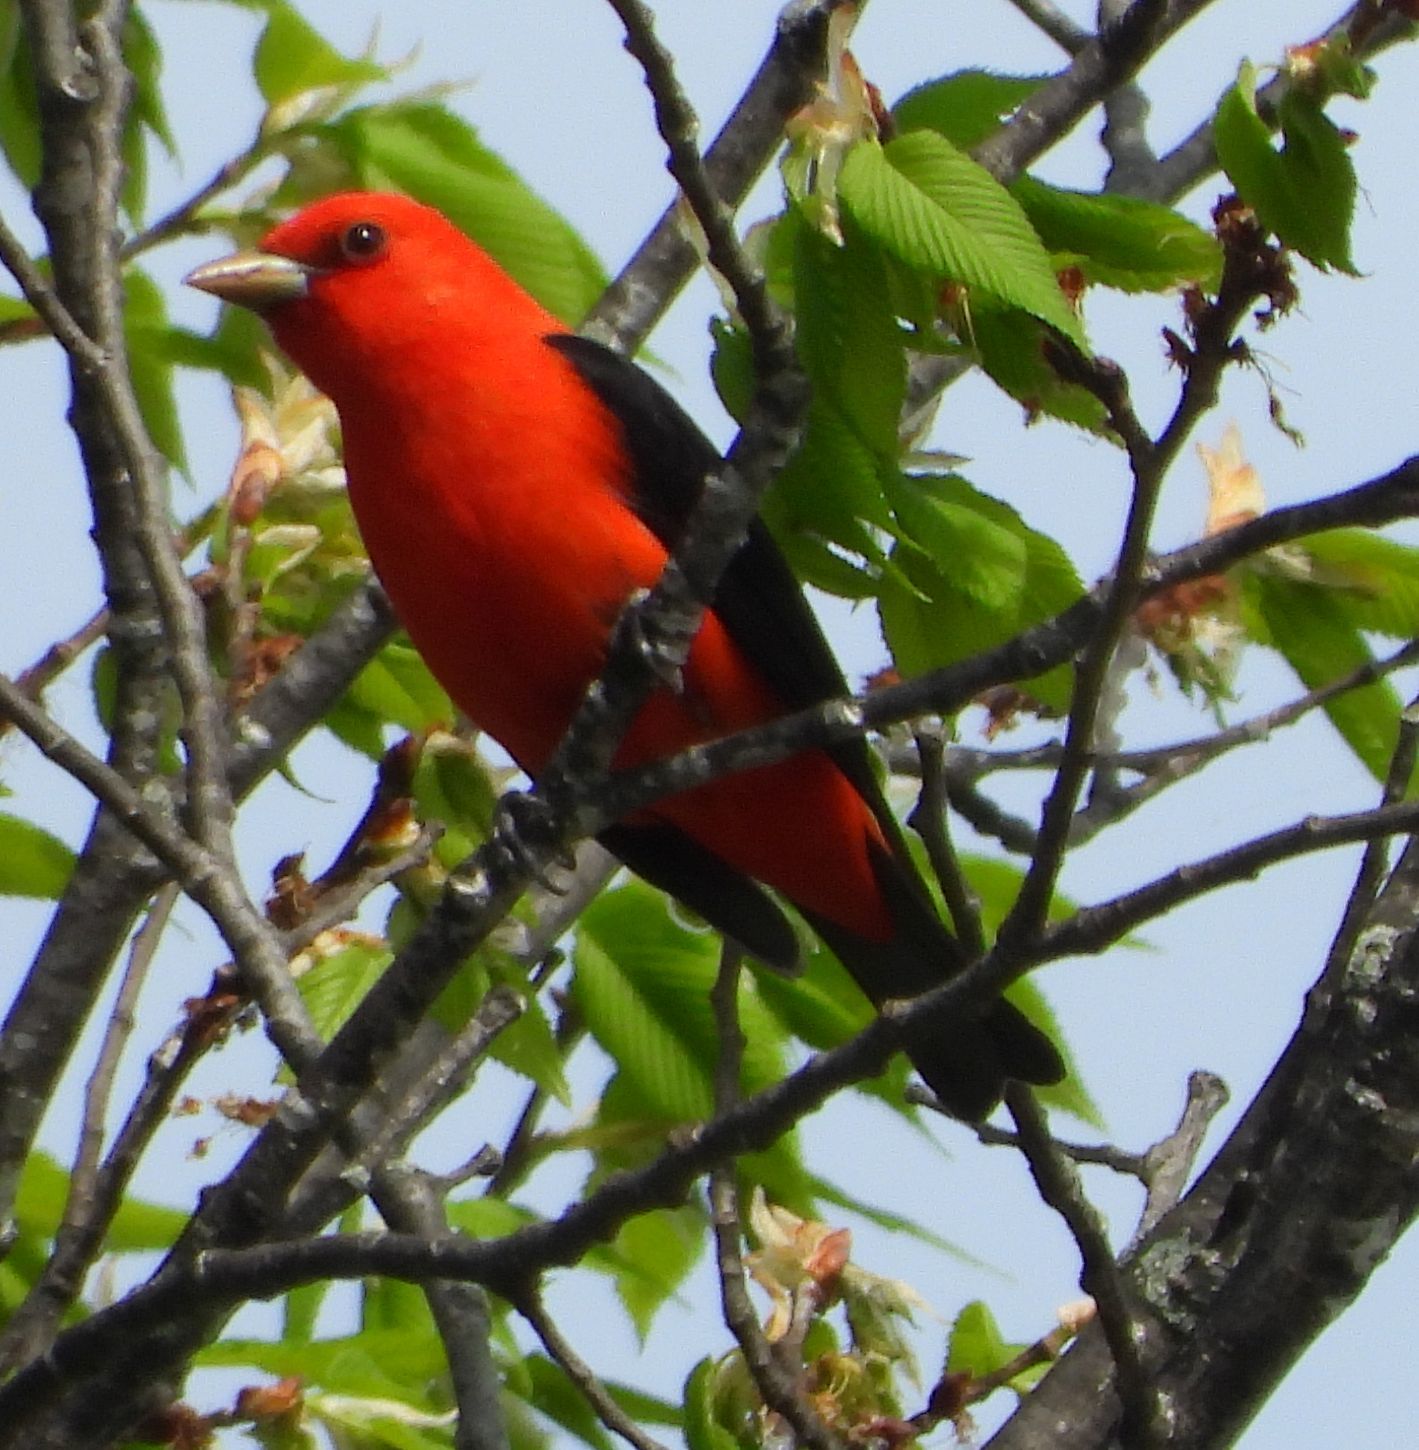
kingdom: Animalia
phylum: Chordata
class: Aves
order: Passeriformes
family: Cardinalidae
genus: Piranga
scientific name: Piranga olivacea
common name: Scarlet tanager
